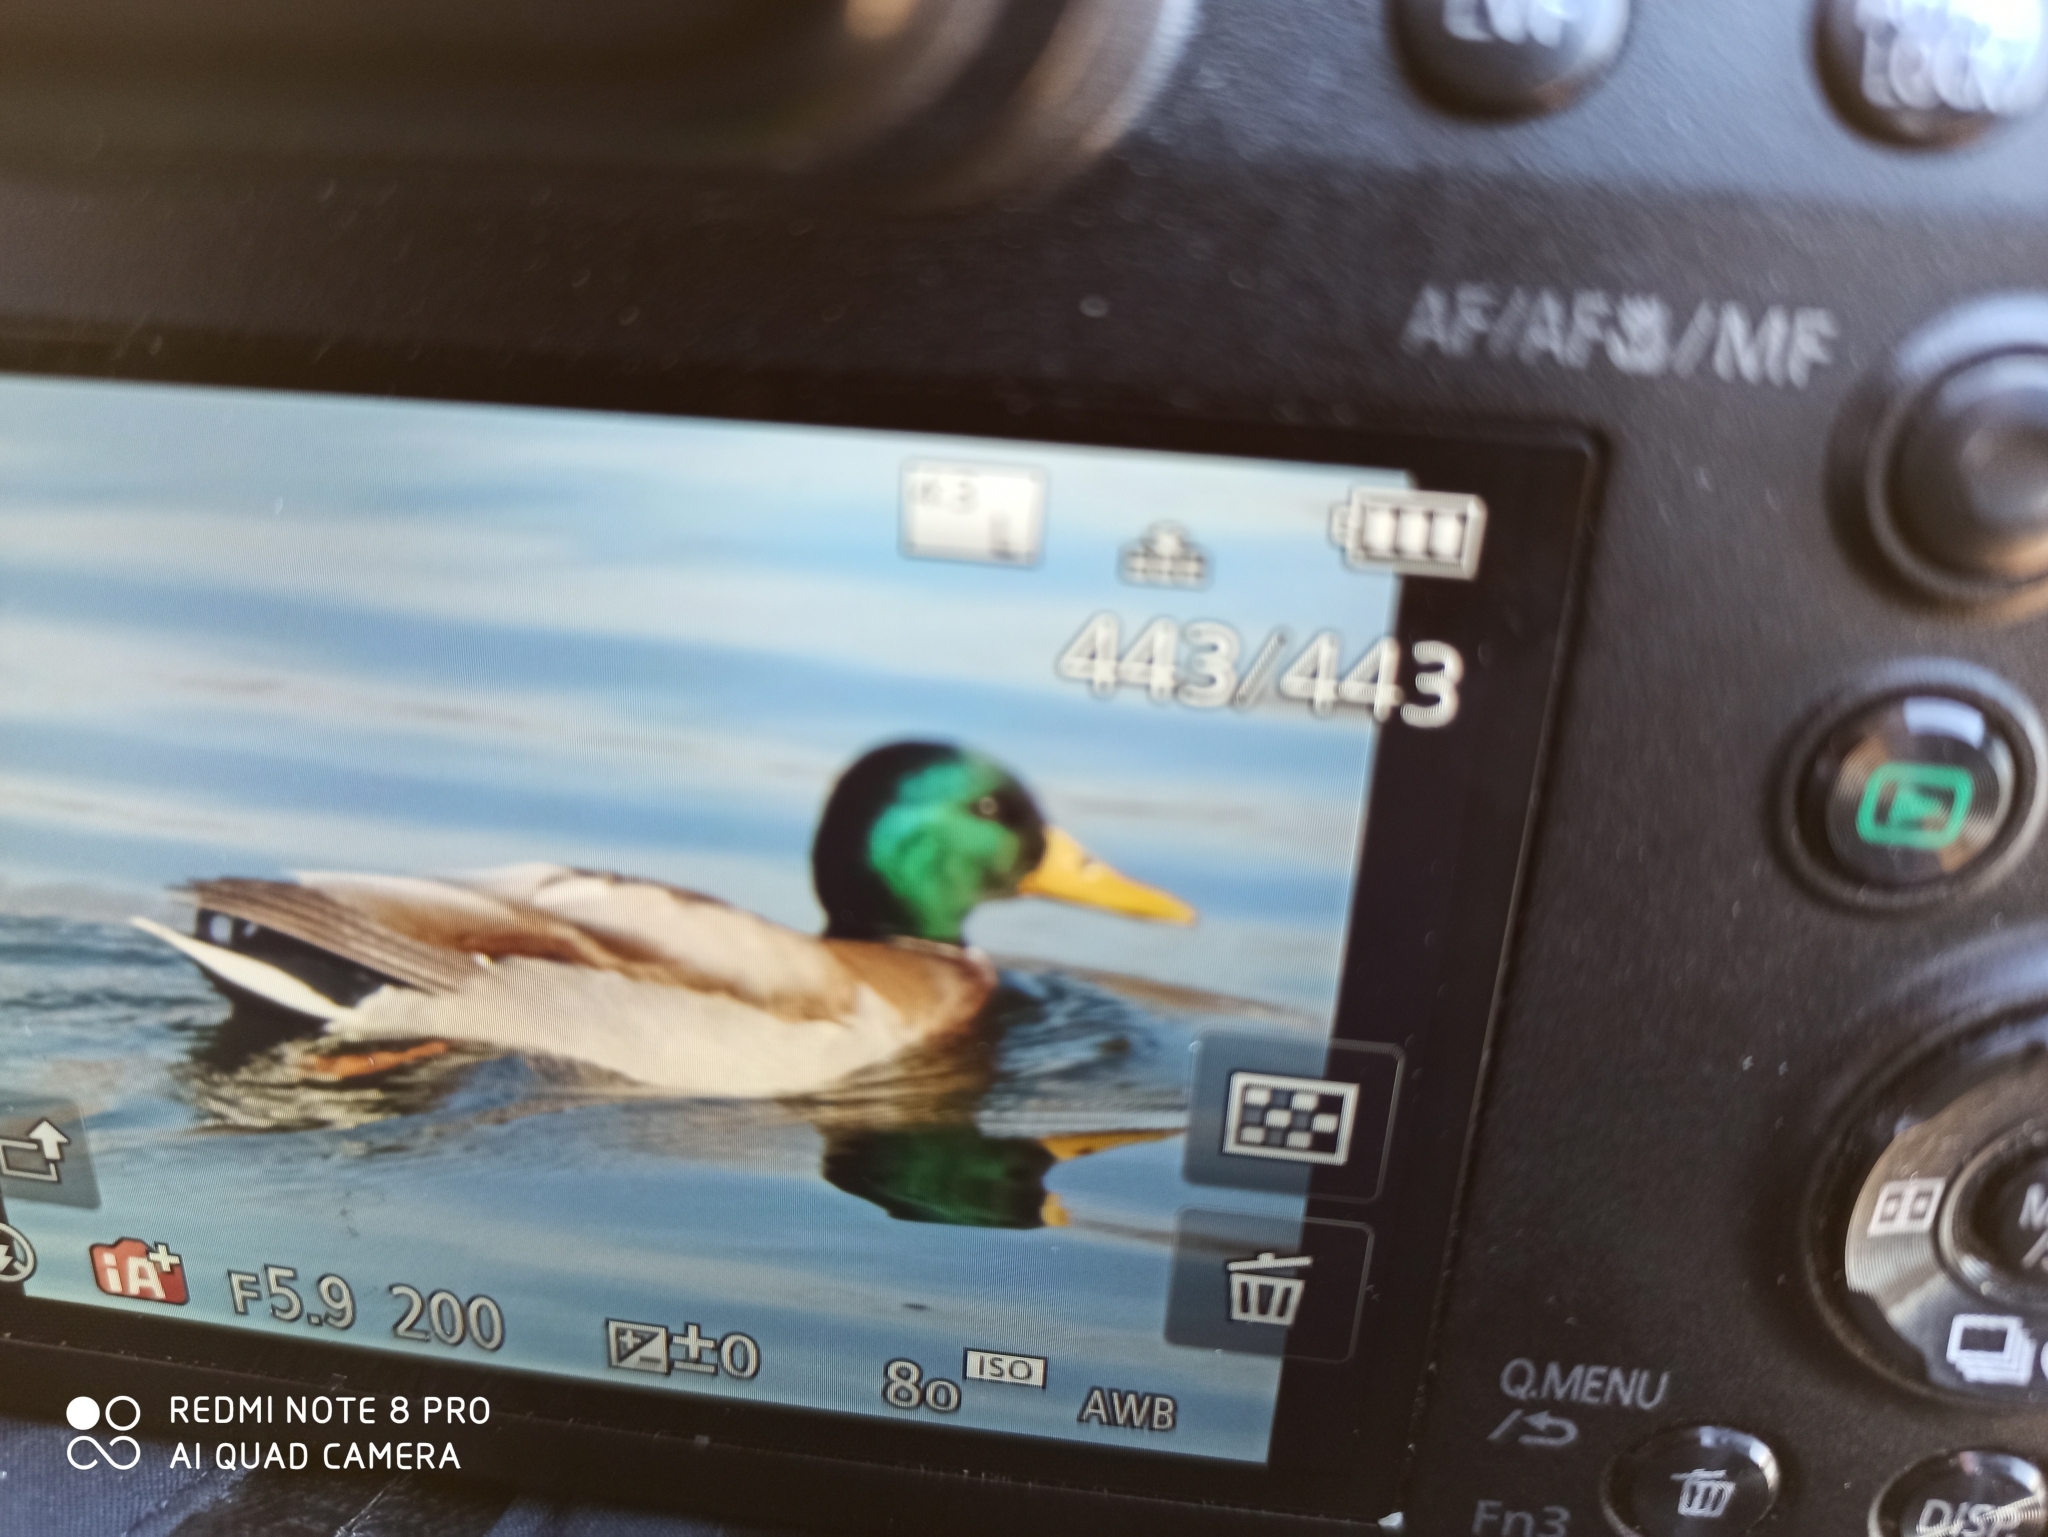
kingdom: Animalia
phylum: Chordata
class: Aves
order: Anseriformes
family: Anatidae
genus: Anas
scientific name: Anas platyrhynchos
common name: Mallard
